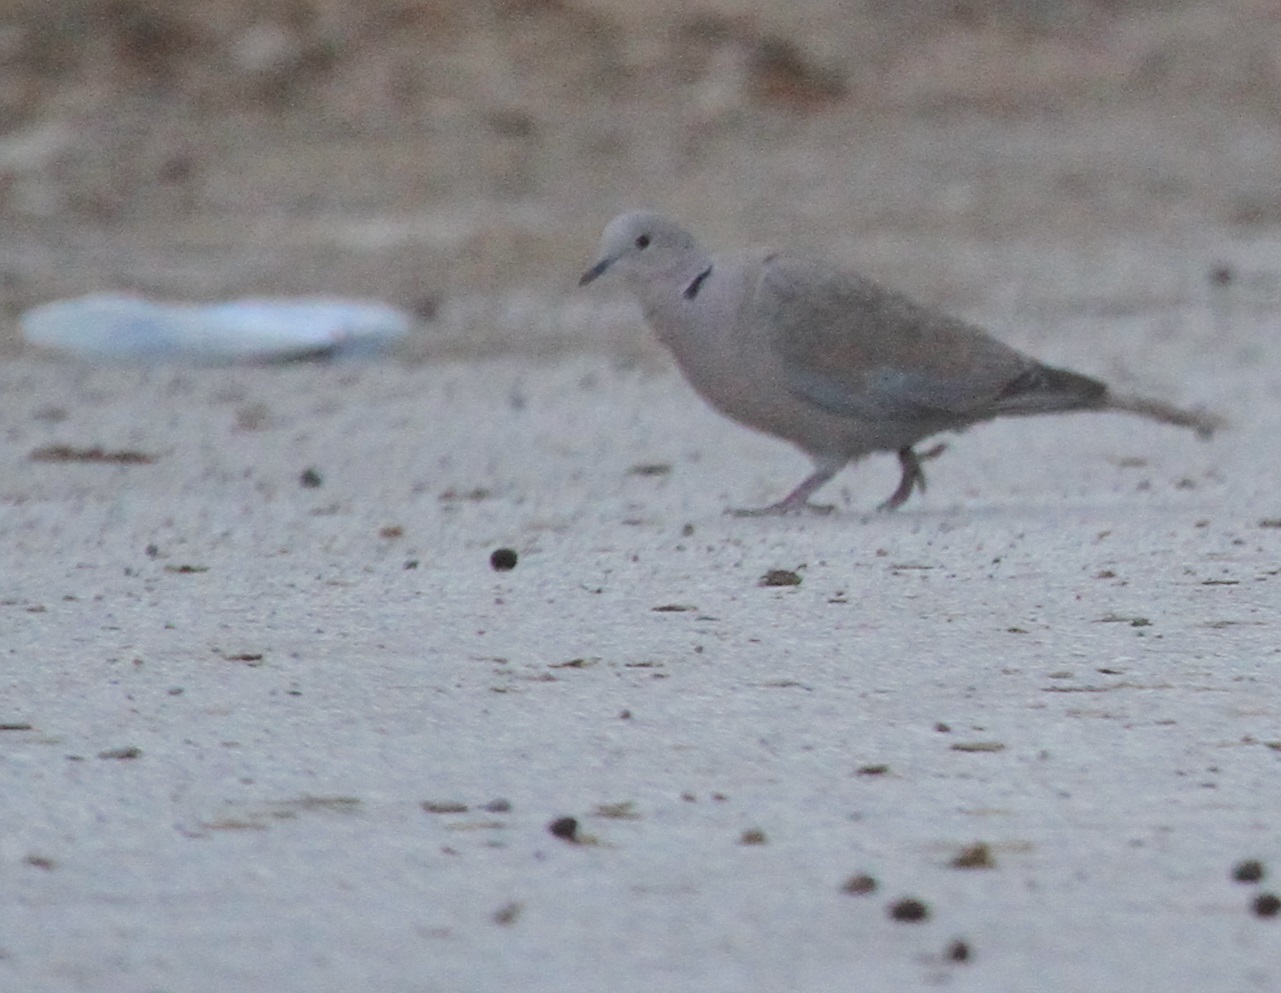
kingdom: Animalia
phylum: Chordata
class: Aves
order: Columbiformes
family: Columbidae
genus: Streptopelia
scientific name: Streptopelia decaocto
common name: Eurasian collared dove
